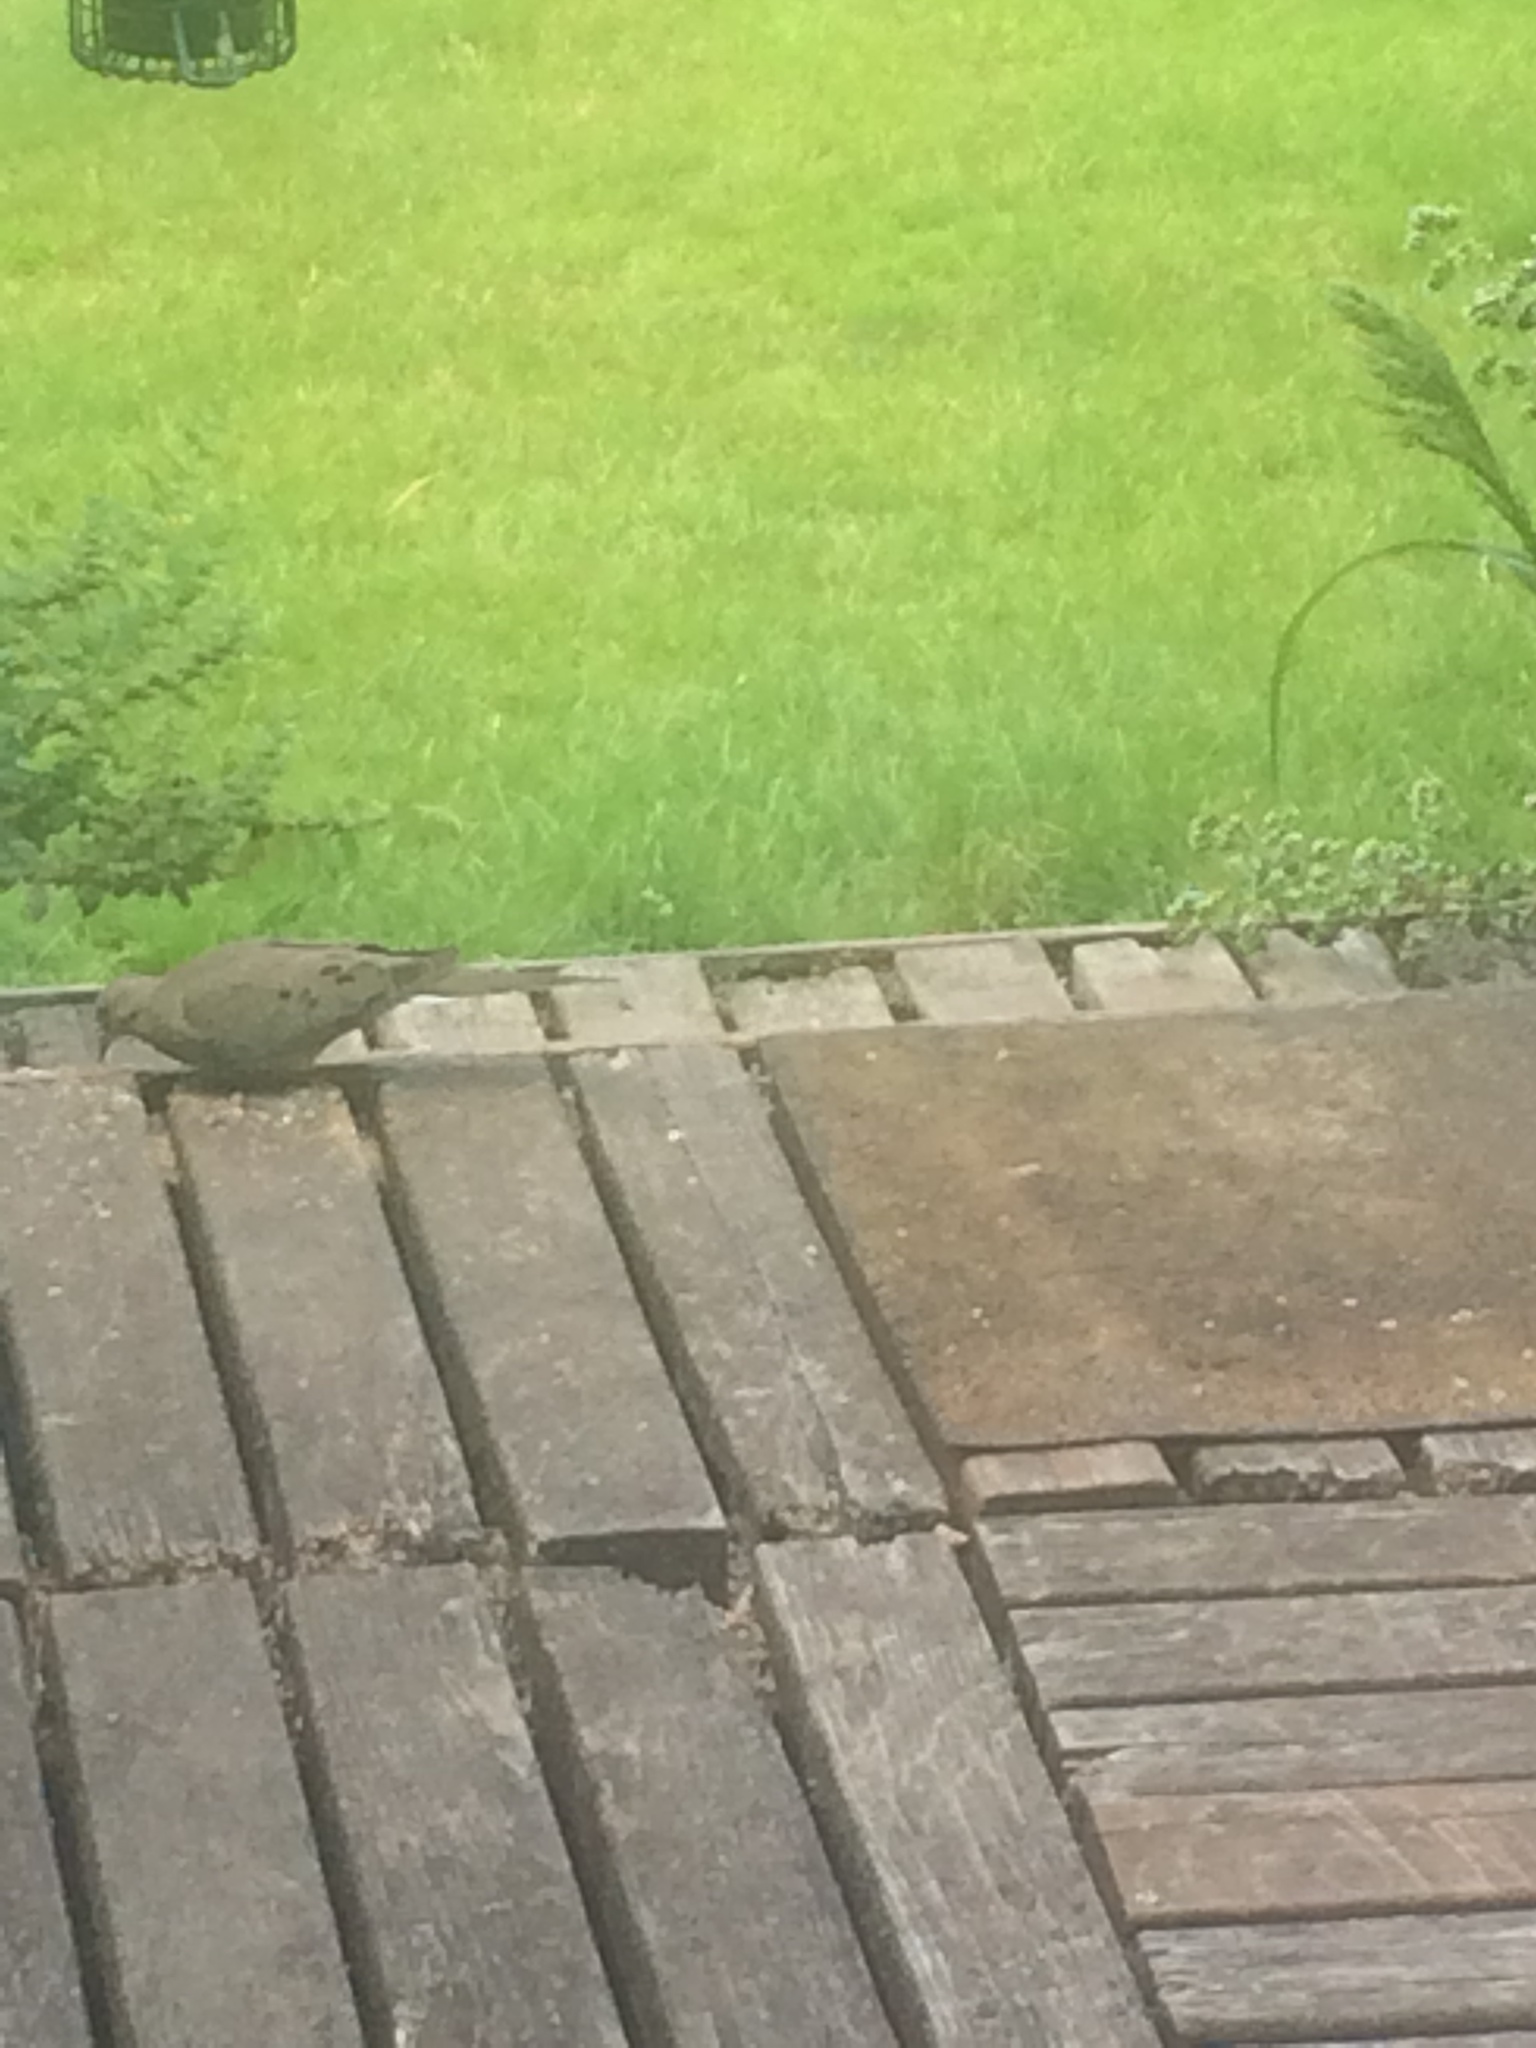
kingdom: Animalia
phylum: Chordata
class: Aves
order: Columbiformes
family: Columbidae
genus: Zenaida
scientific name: Zenaida macroura
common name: Mourning dove
